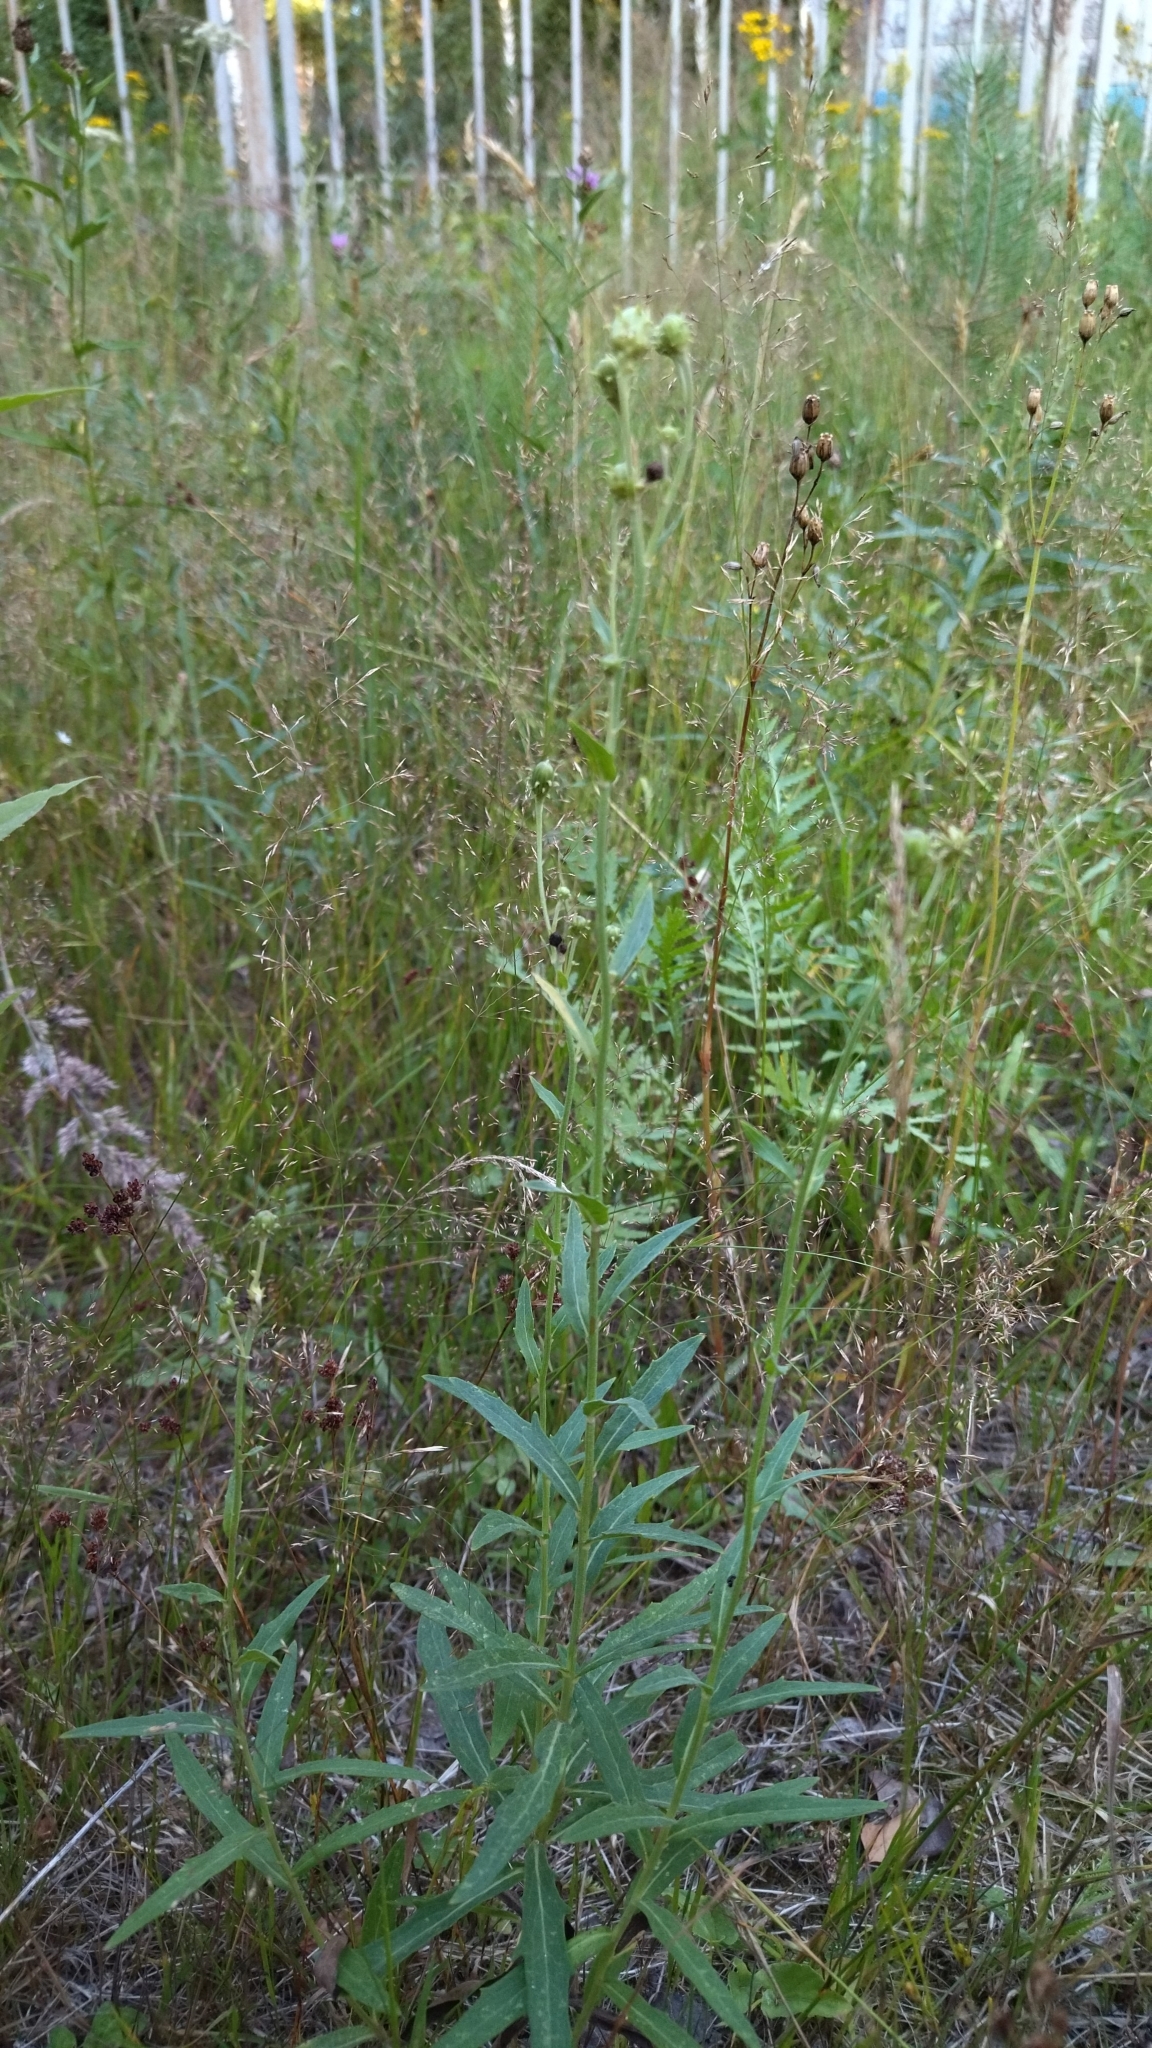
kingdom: Plantae
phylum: Tracheophyta
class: Magnoliopsida
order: Asterales
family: Asteraceae
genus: Hieracium
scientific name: Hieracium umbellatum
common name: Northern hawkweed
